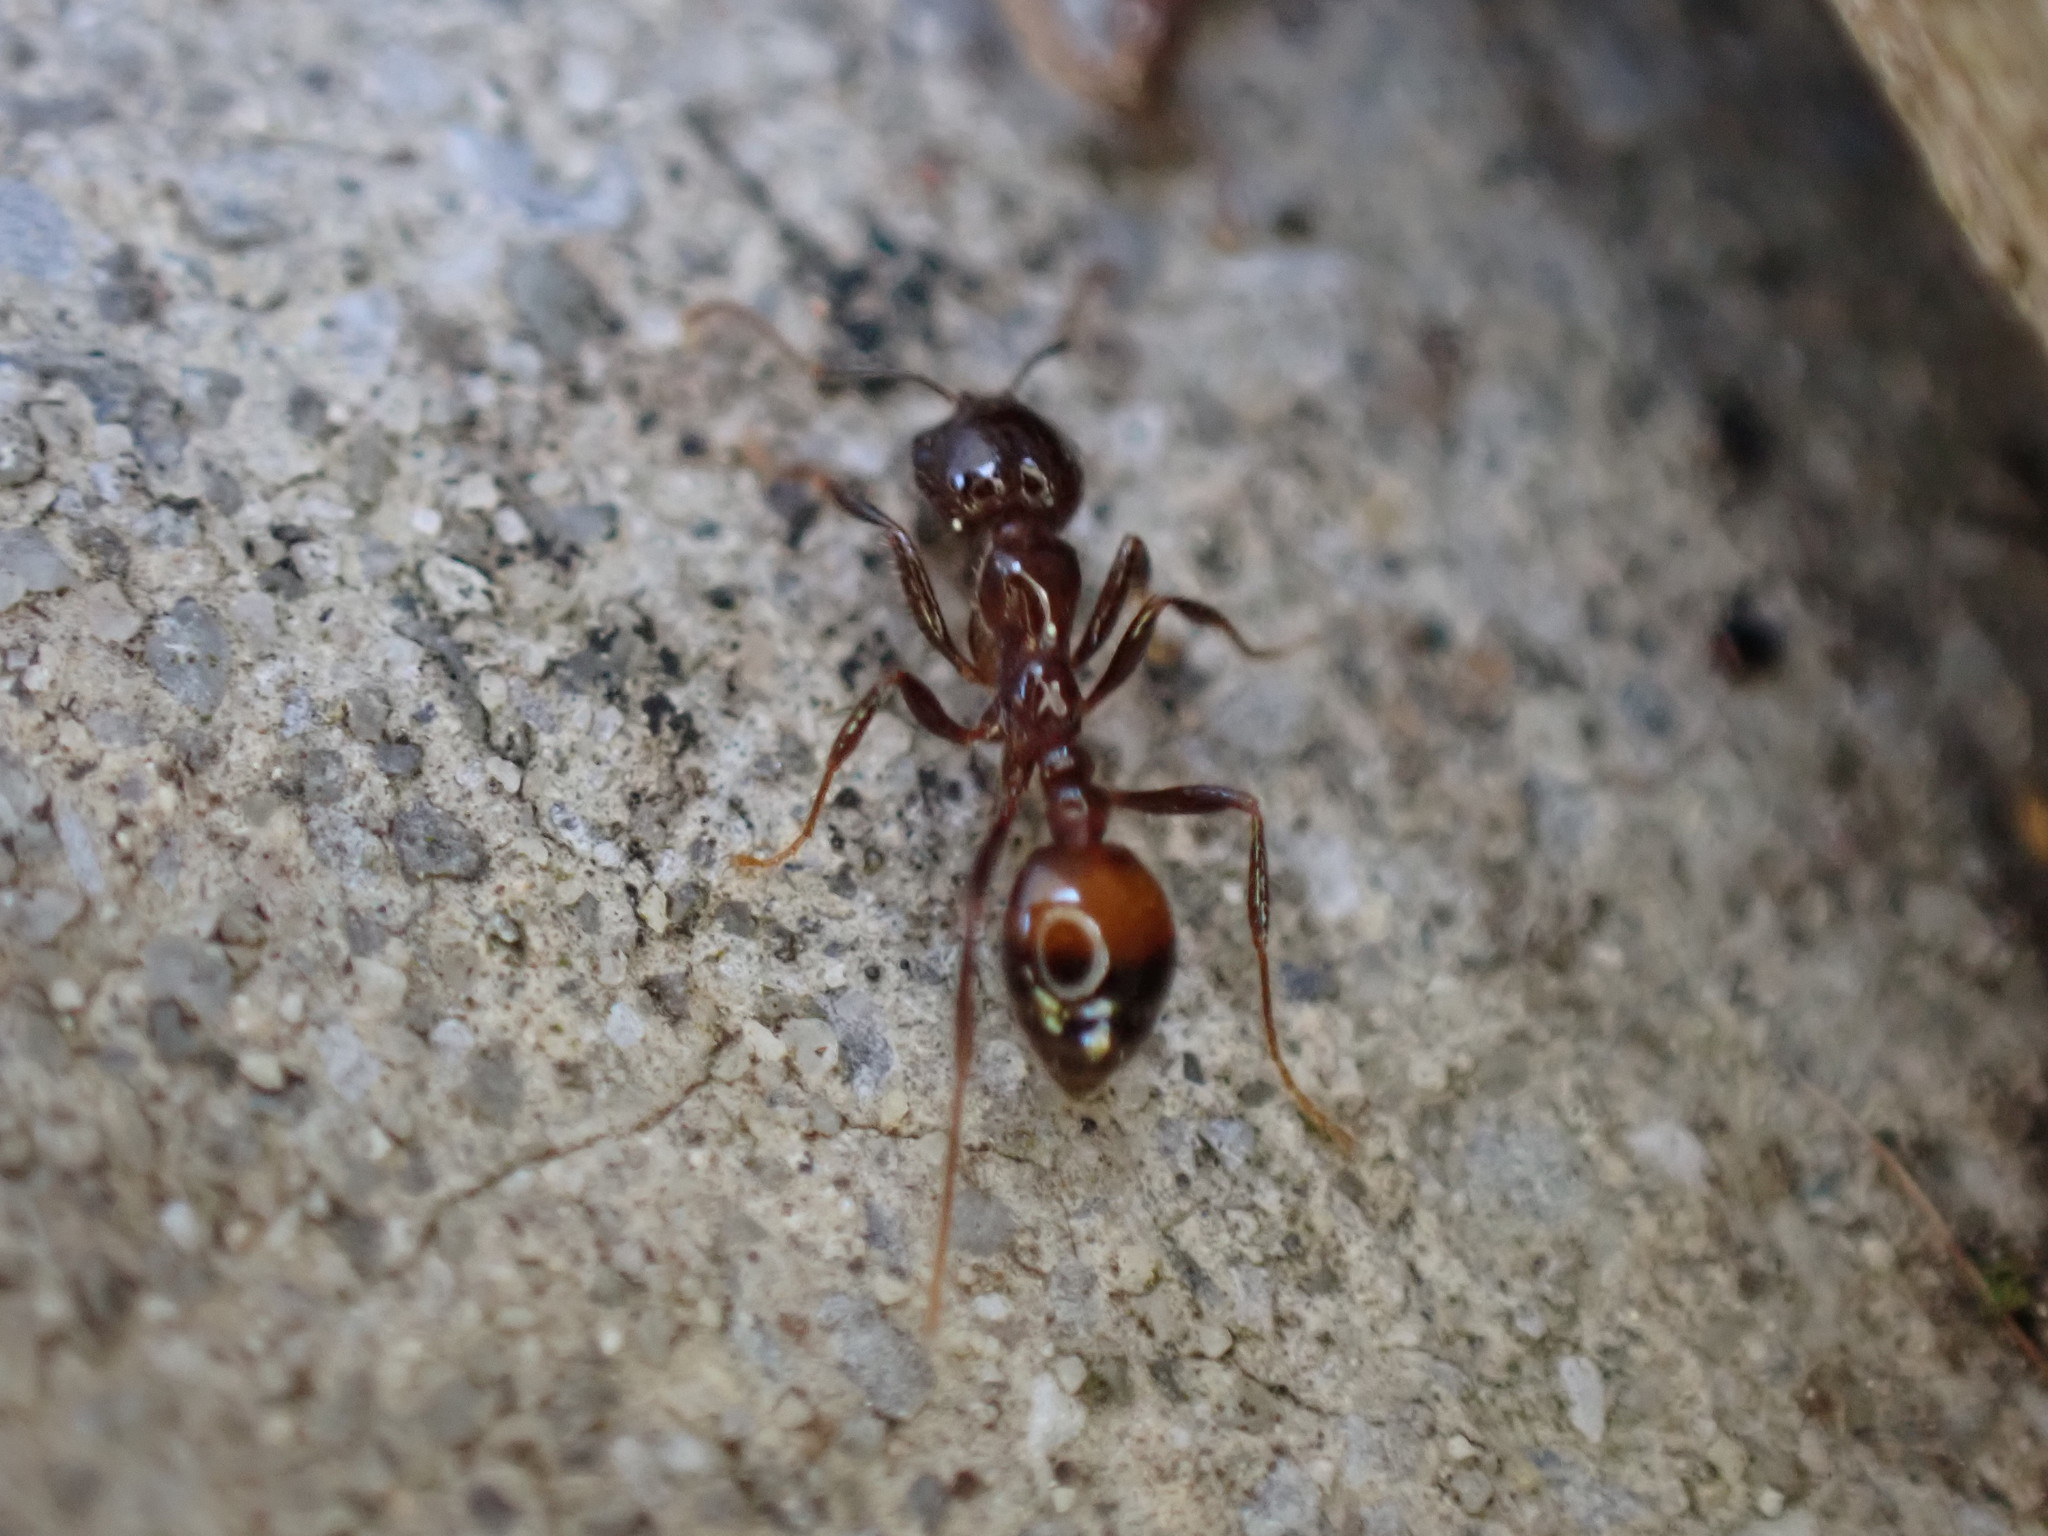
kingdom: Animalia
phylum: Arthropoda
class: Insecta
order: Hymenoptera
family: Formicidae
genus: Solenopsis
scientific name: Solenopsis
